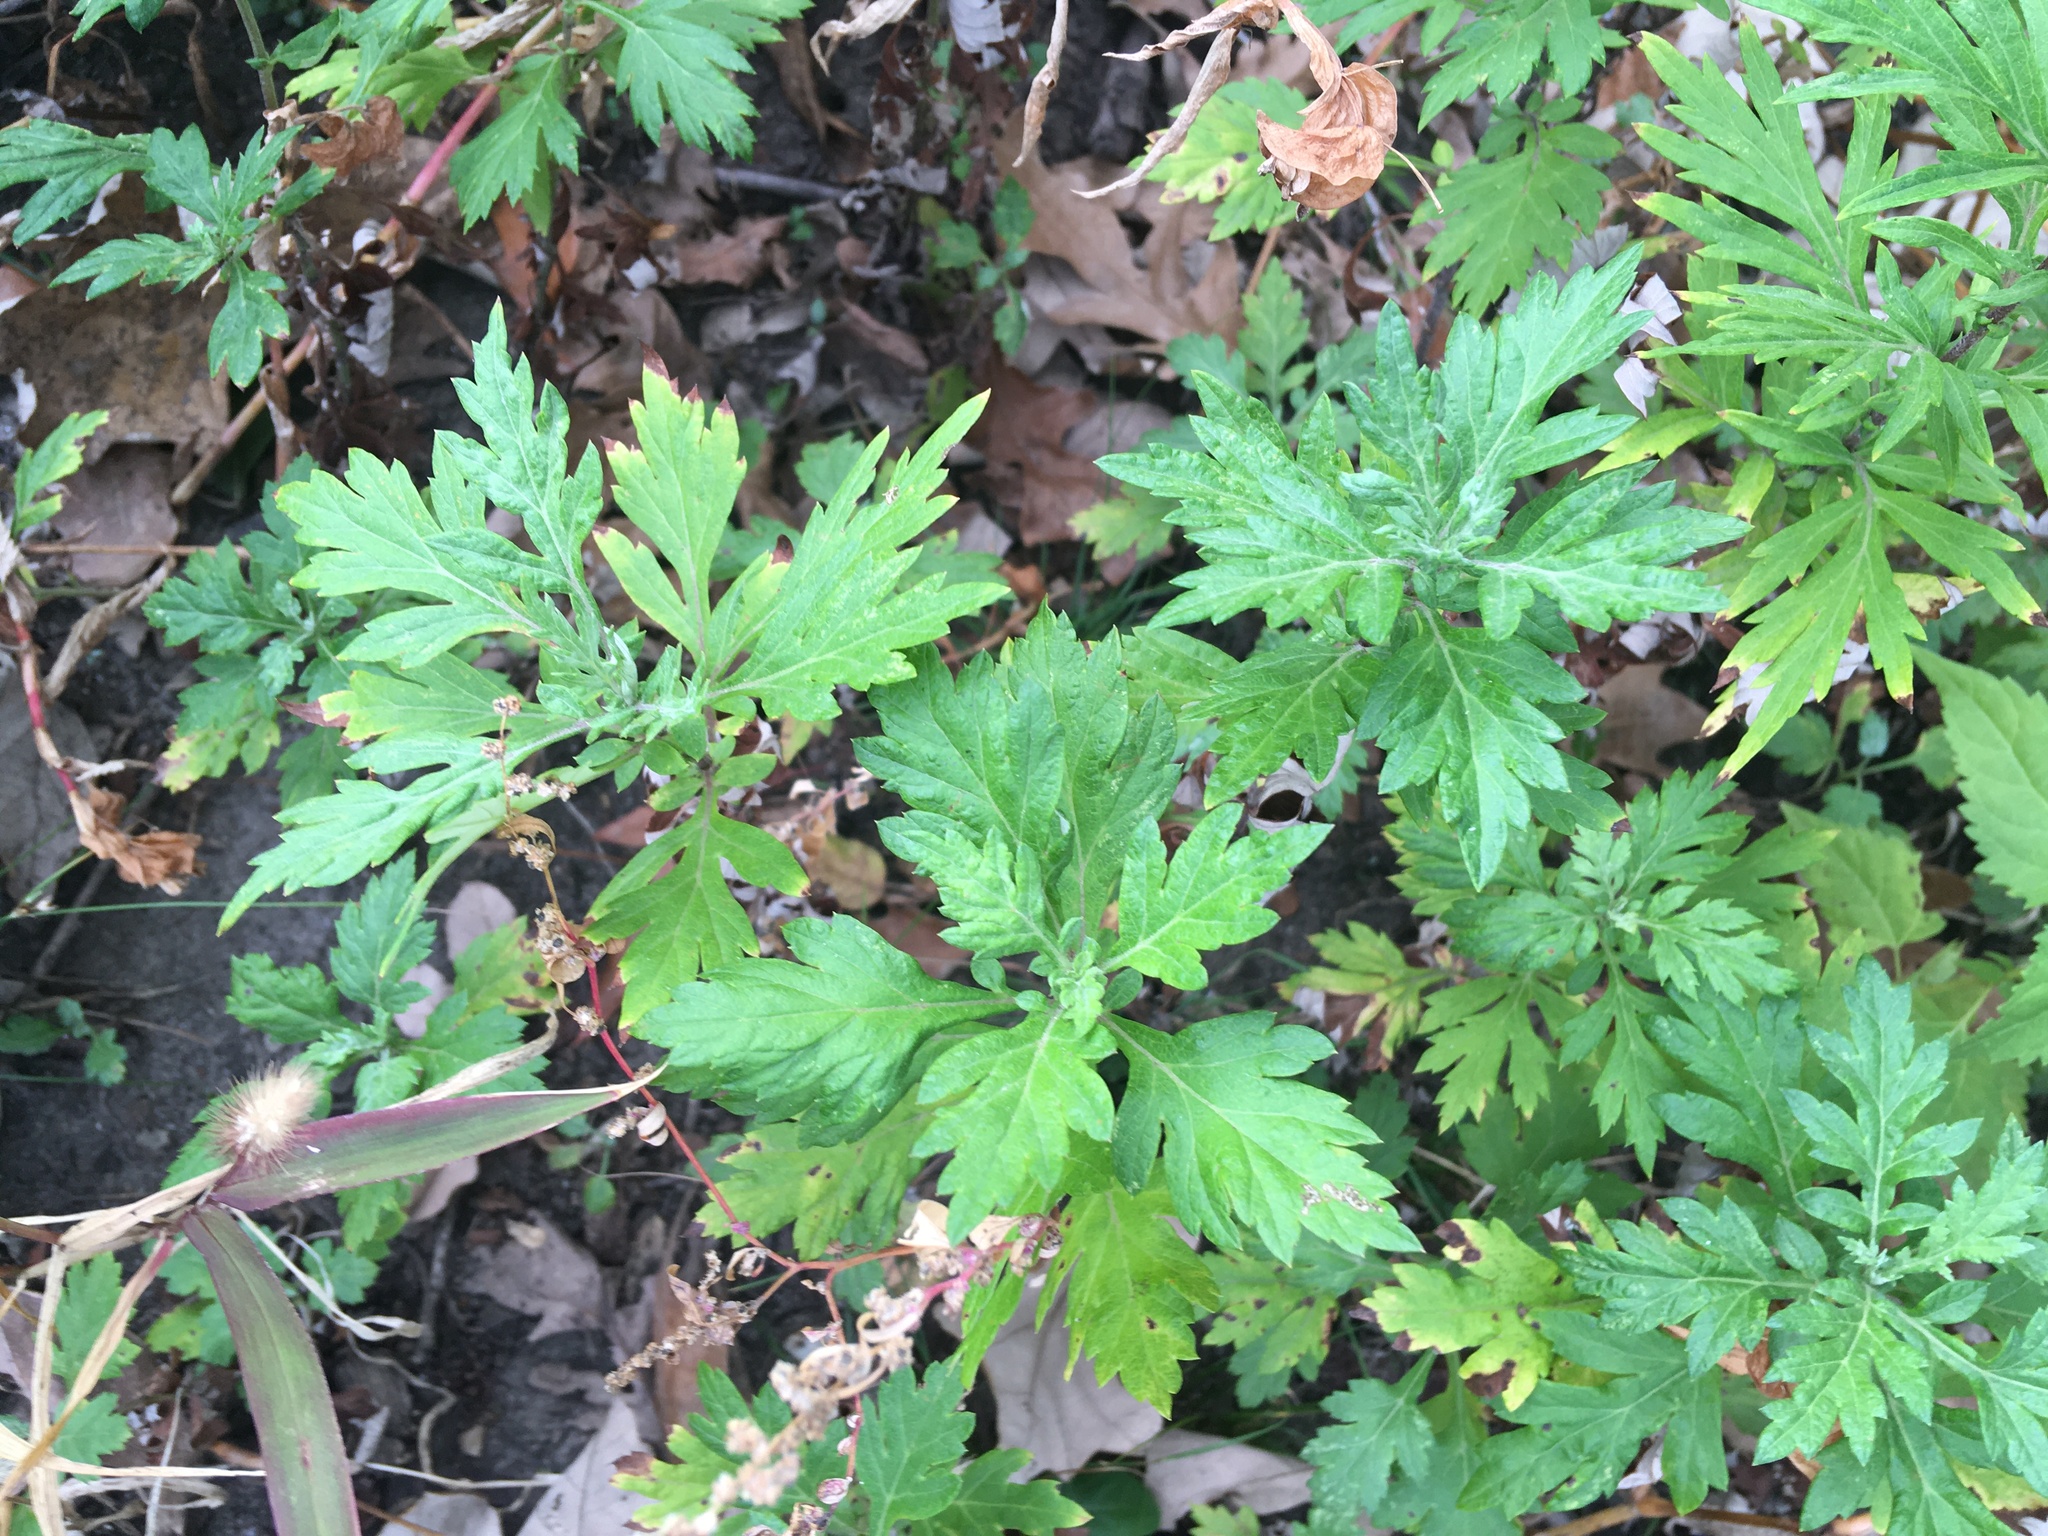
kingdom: Plantae
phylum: Tracheophyta
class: Magnoliopsida
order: Asterales
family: Asteraceae
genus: Artemisia
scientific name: Artemisia vulgaris
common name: Mugwort
